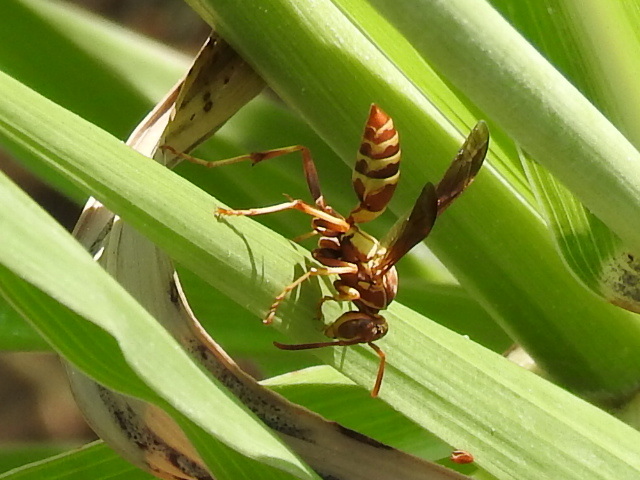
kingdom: Animalia
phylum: Arthropoda
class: Insecta
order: Hymenoptera
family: Eumenidae
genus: Polistes
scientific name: Polistes dorsalis
